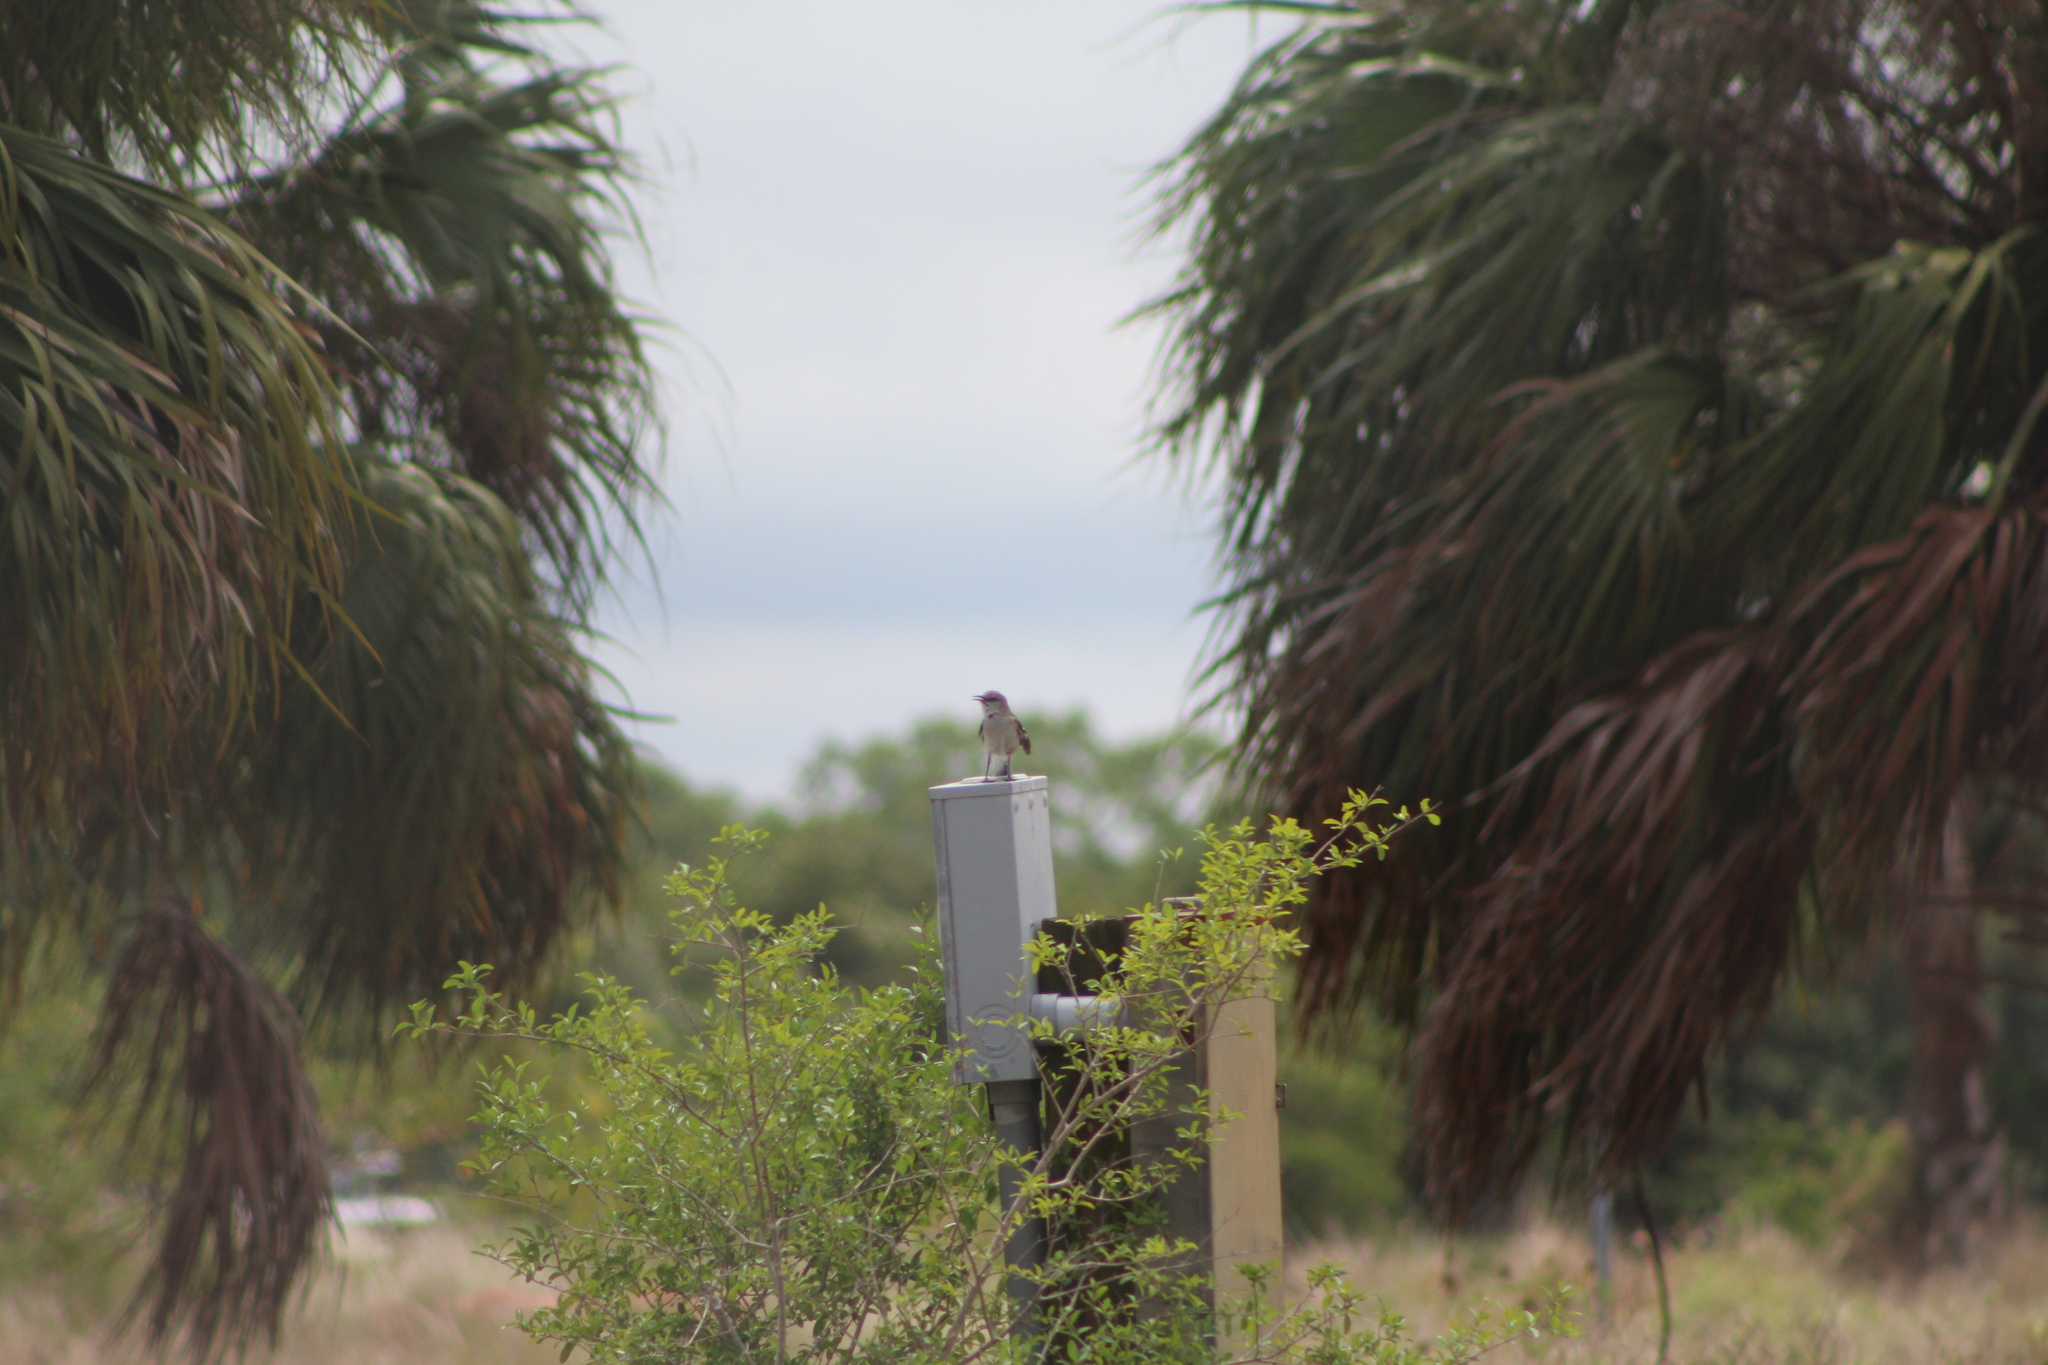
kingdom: Animalia
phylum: Chordata
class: Aves
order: Passeriformes
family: Mimidae
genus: Mimus
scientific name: Mimus polyglottos
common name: Northern mockingbird
